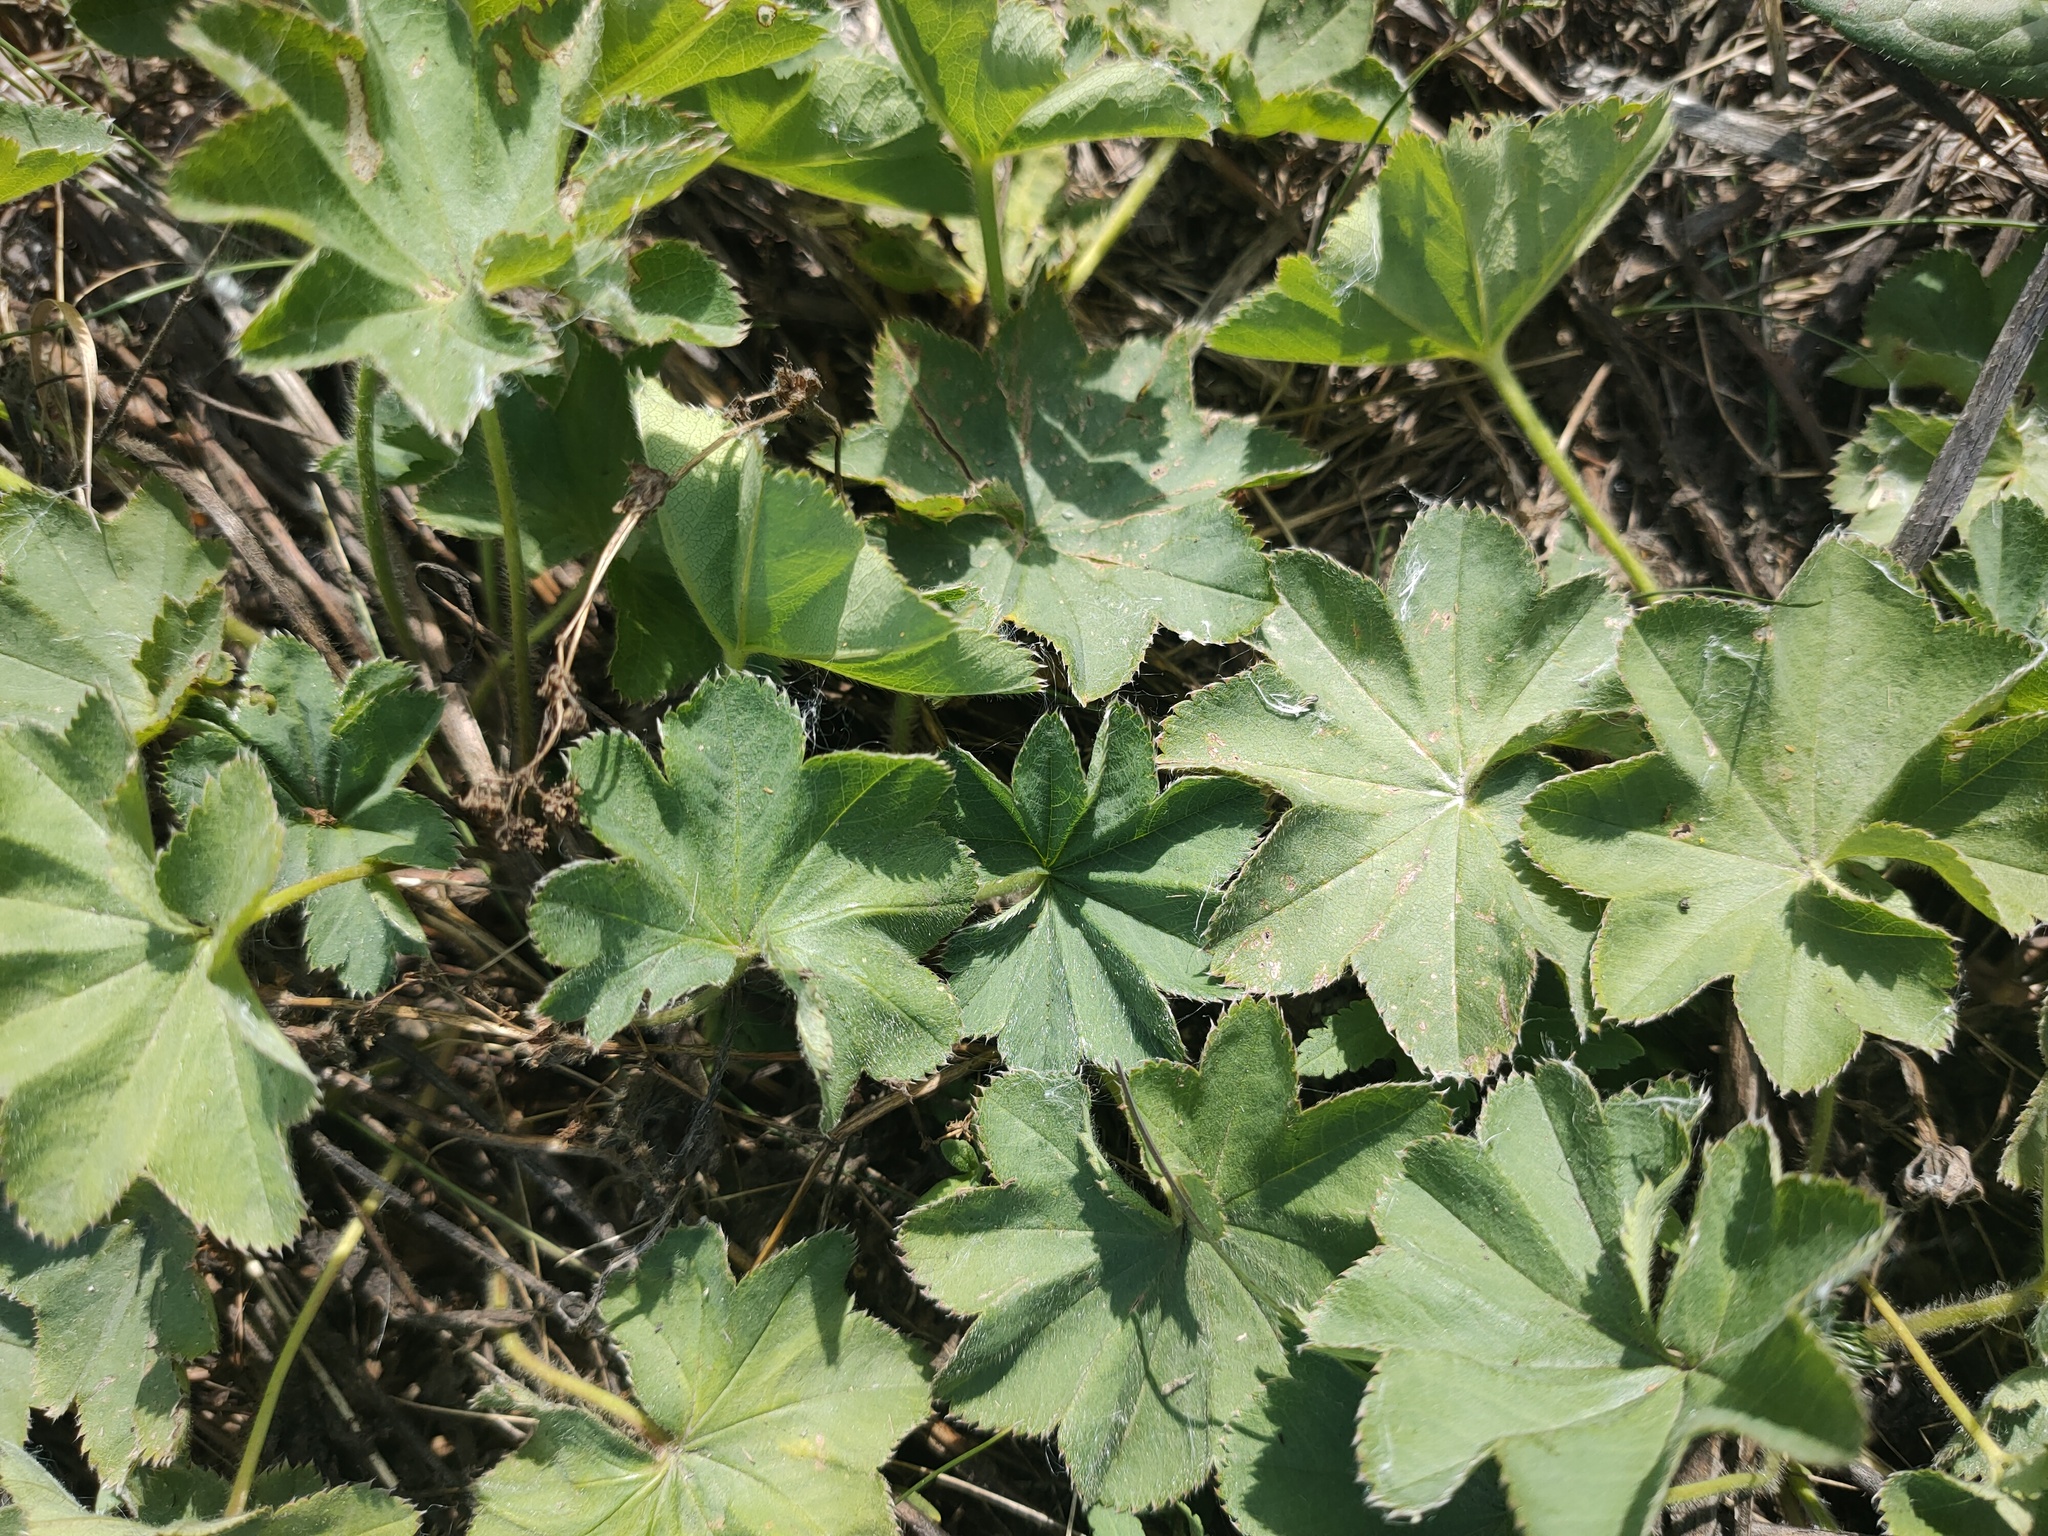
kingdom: Plantae
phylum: Tracheophyta
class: Magnoliopsida
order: Rosales
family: Rosaceae
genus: Alchemilla
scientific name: Alchemilla
